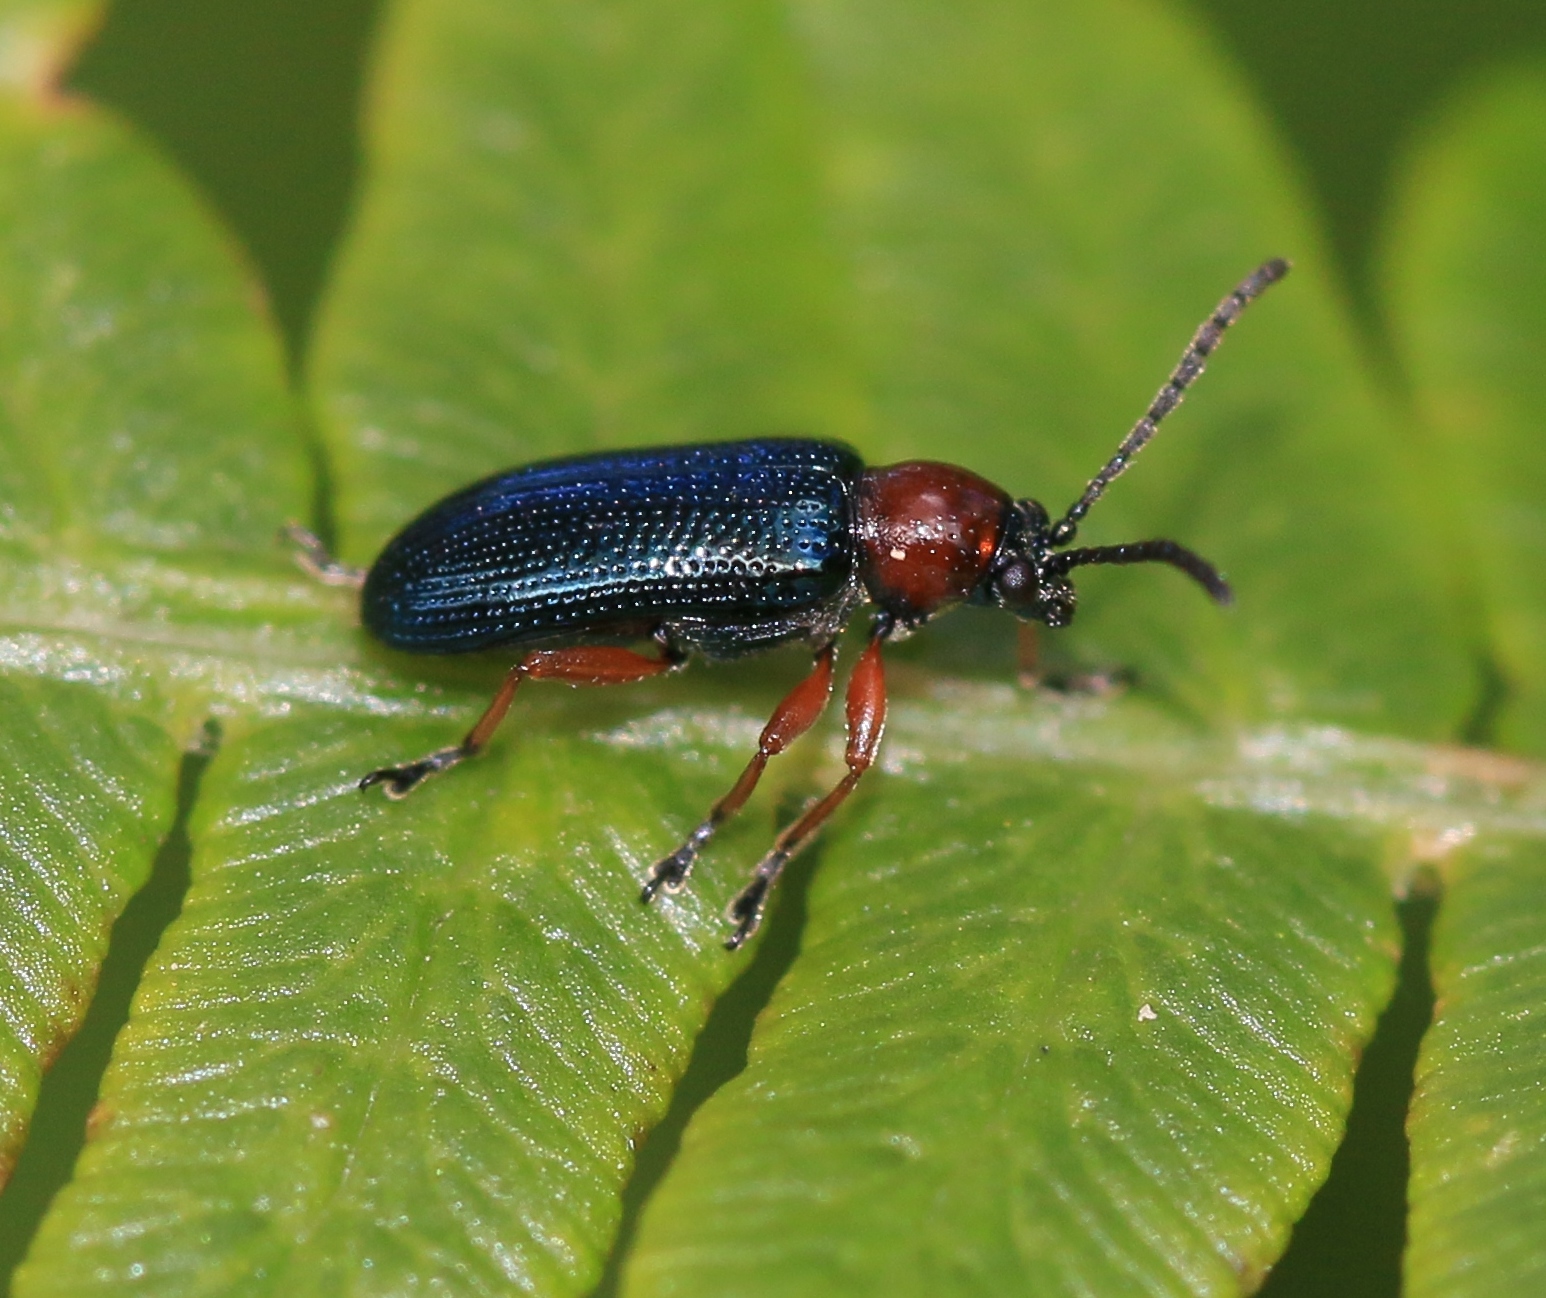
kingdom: Animalia
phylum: Arthropoda
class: Insecta
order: Coleoptera
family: Chrysomelidae
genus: Oulema
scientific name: Oulema
